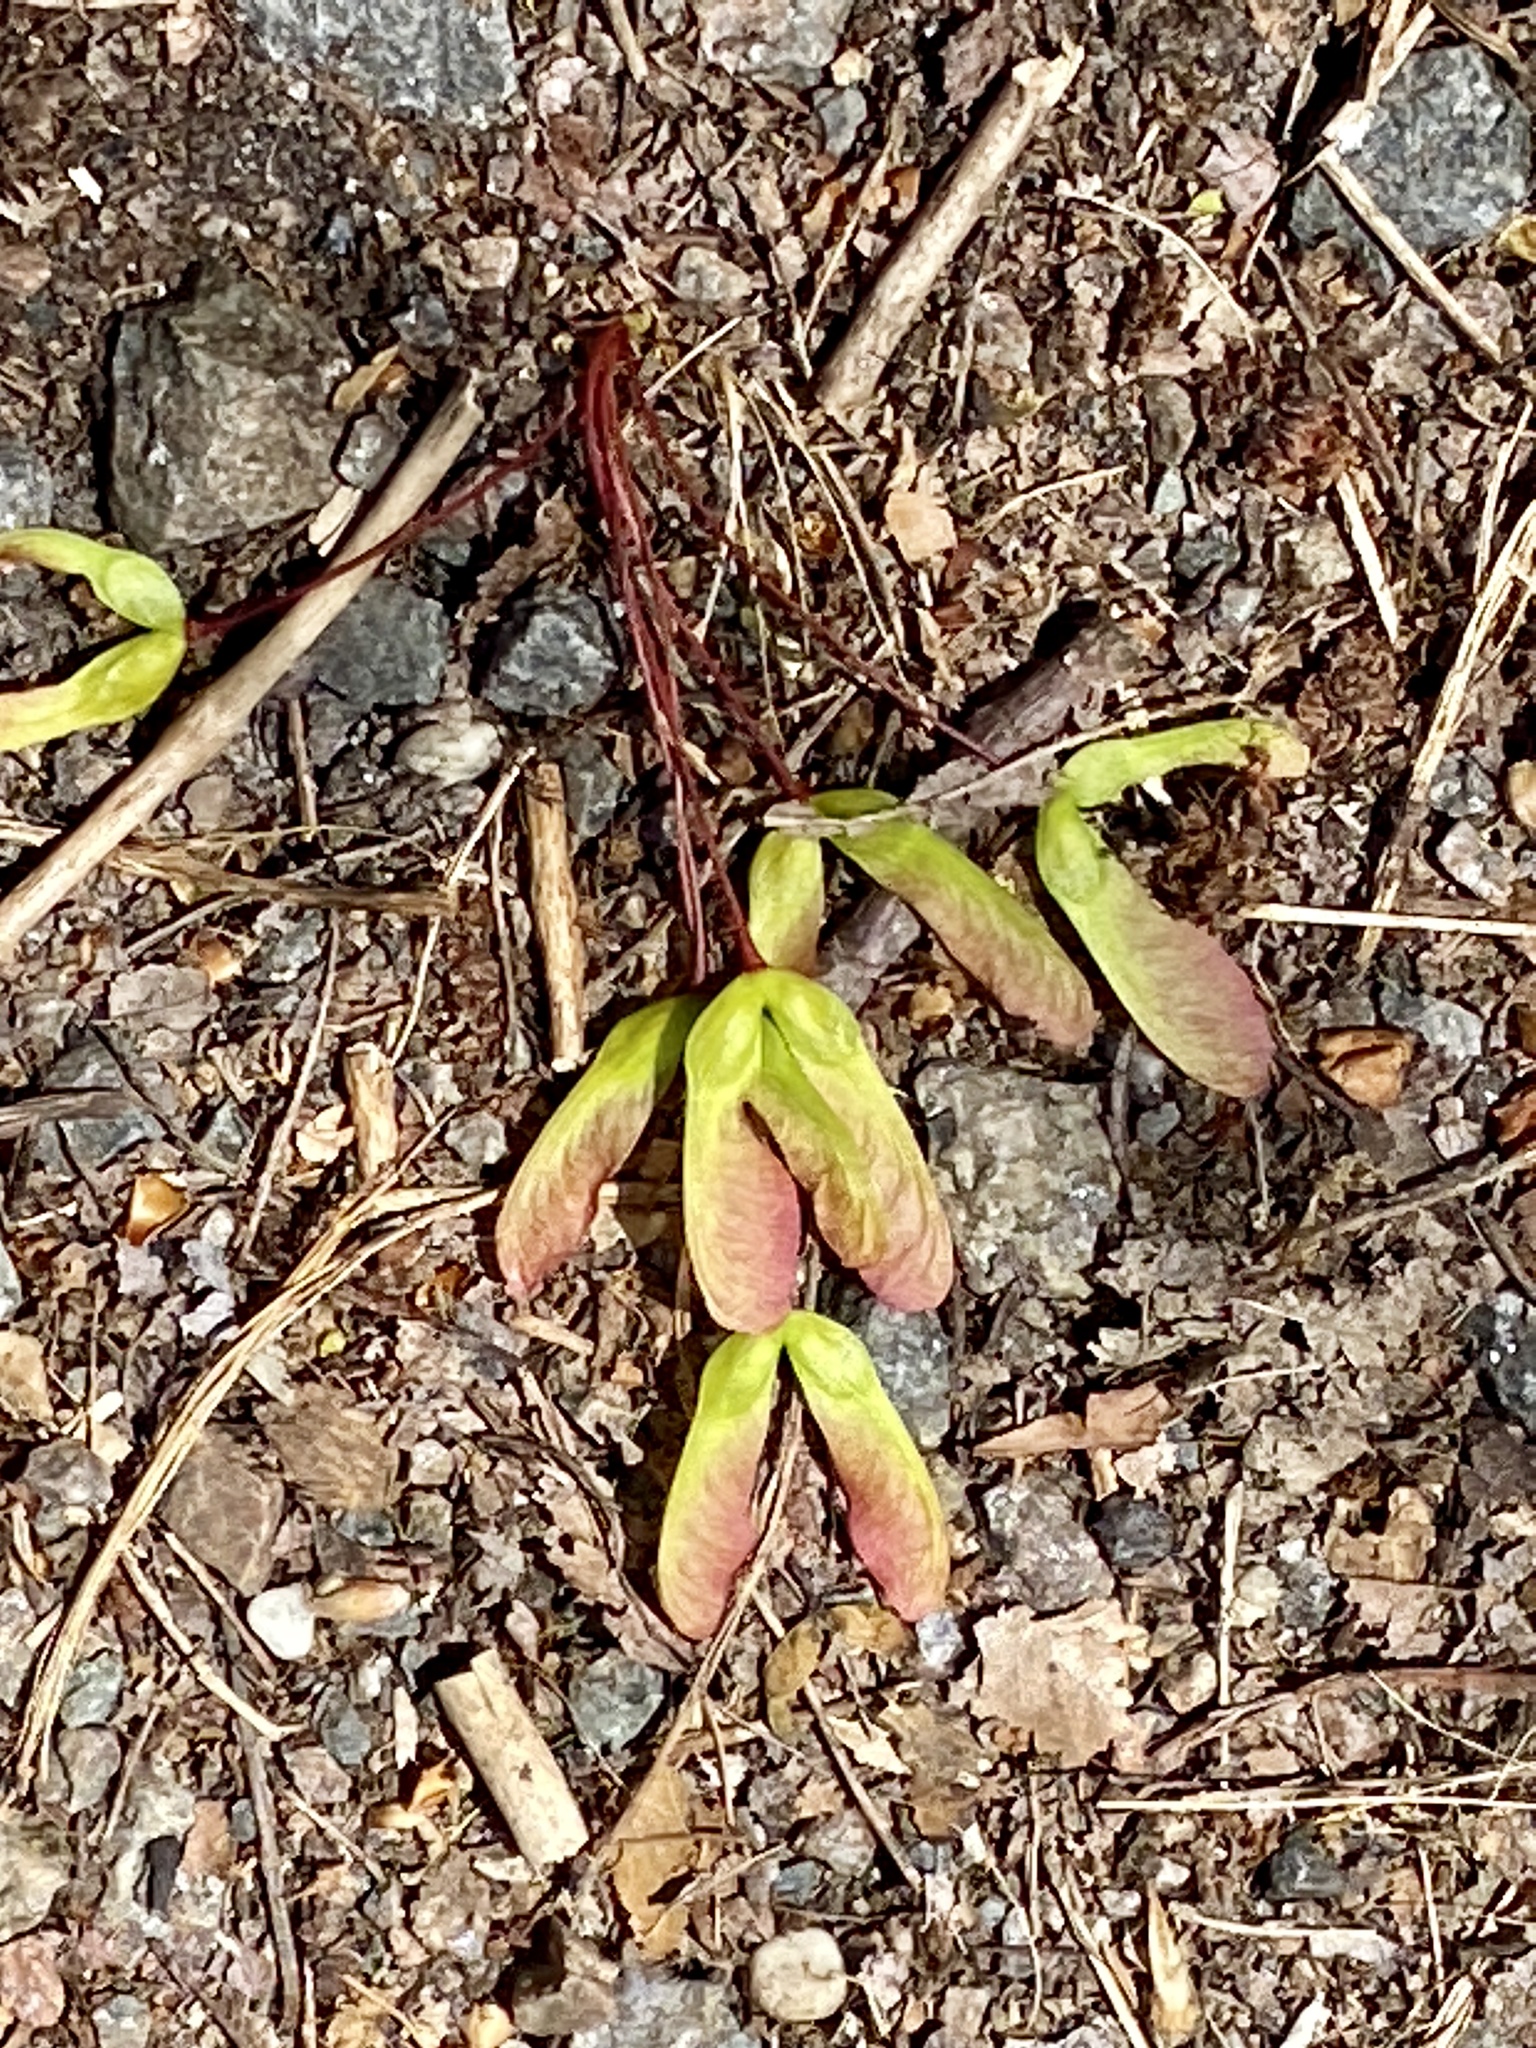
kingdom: Plantae
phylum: Tracheophyta
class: Magnoliopsida
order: Sapindales
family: Sapindaceae
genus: Acer
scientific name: Acer rubrum
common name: Red maple
